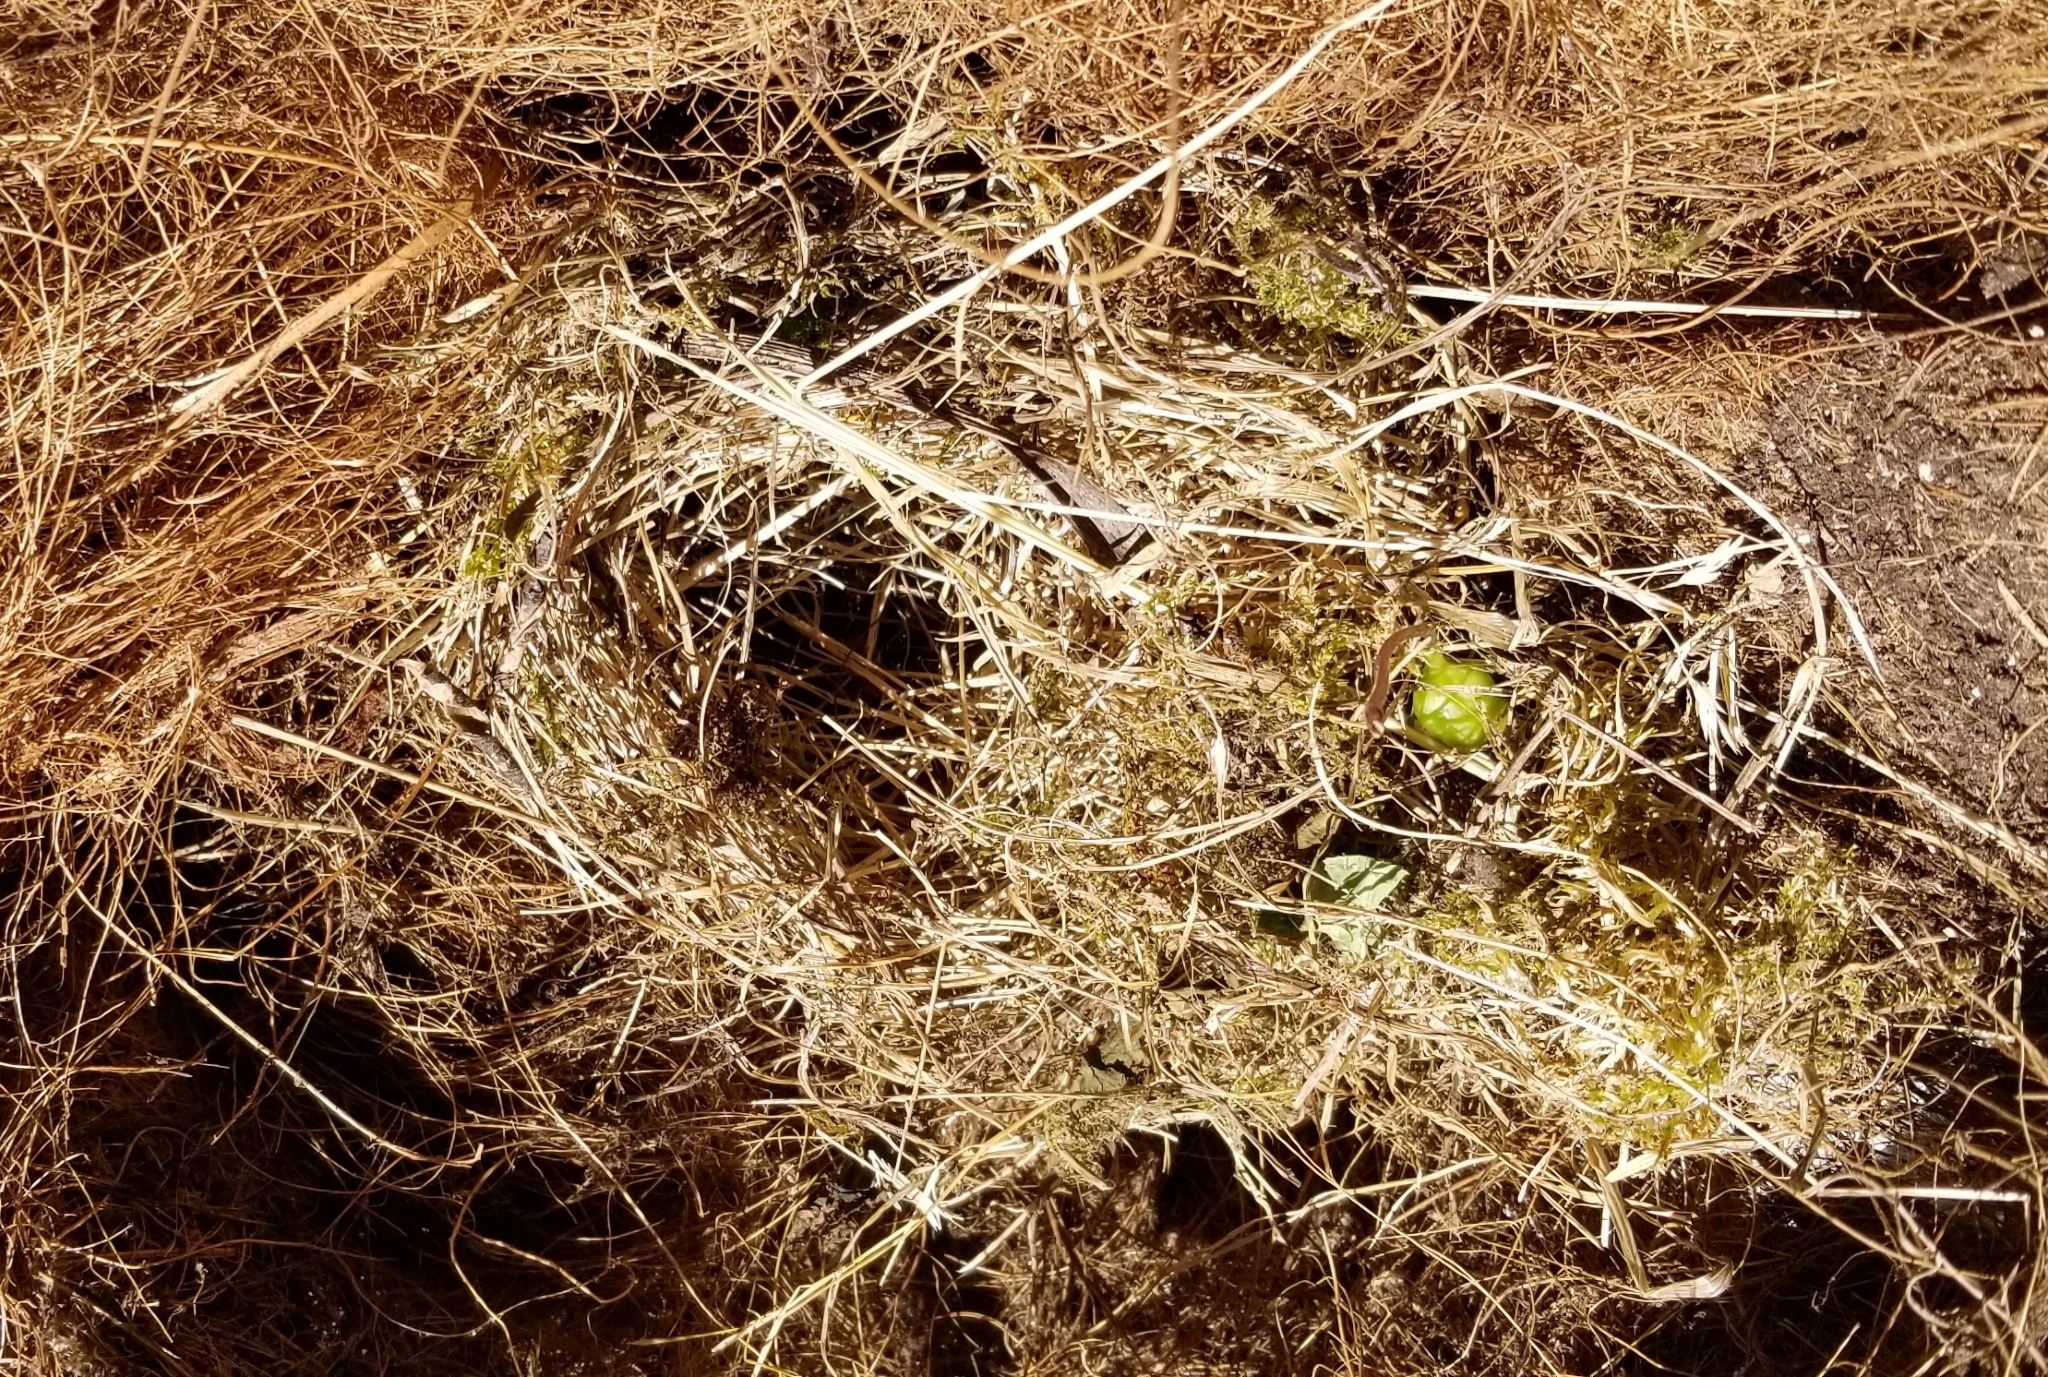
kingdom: Animalia
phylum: Chordata
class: Aves
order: Passeriformes
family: Passerellidae
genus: Junco
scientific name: Junco hyemalis
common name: Dark-eyed junco
